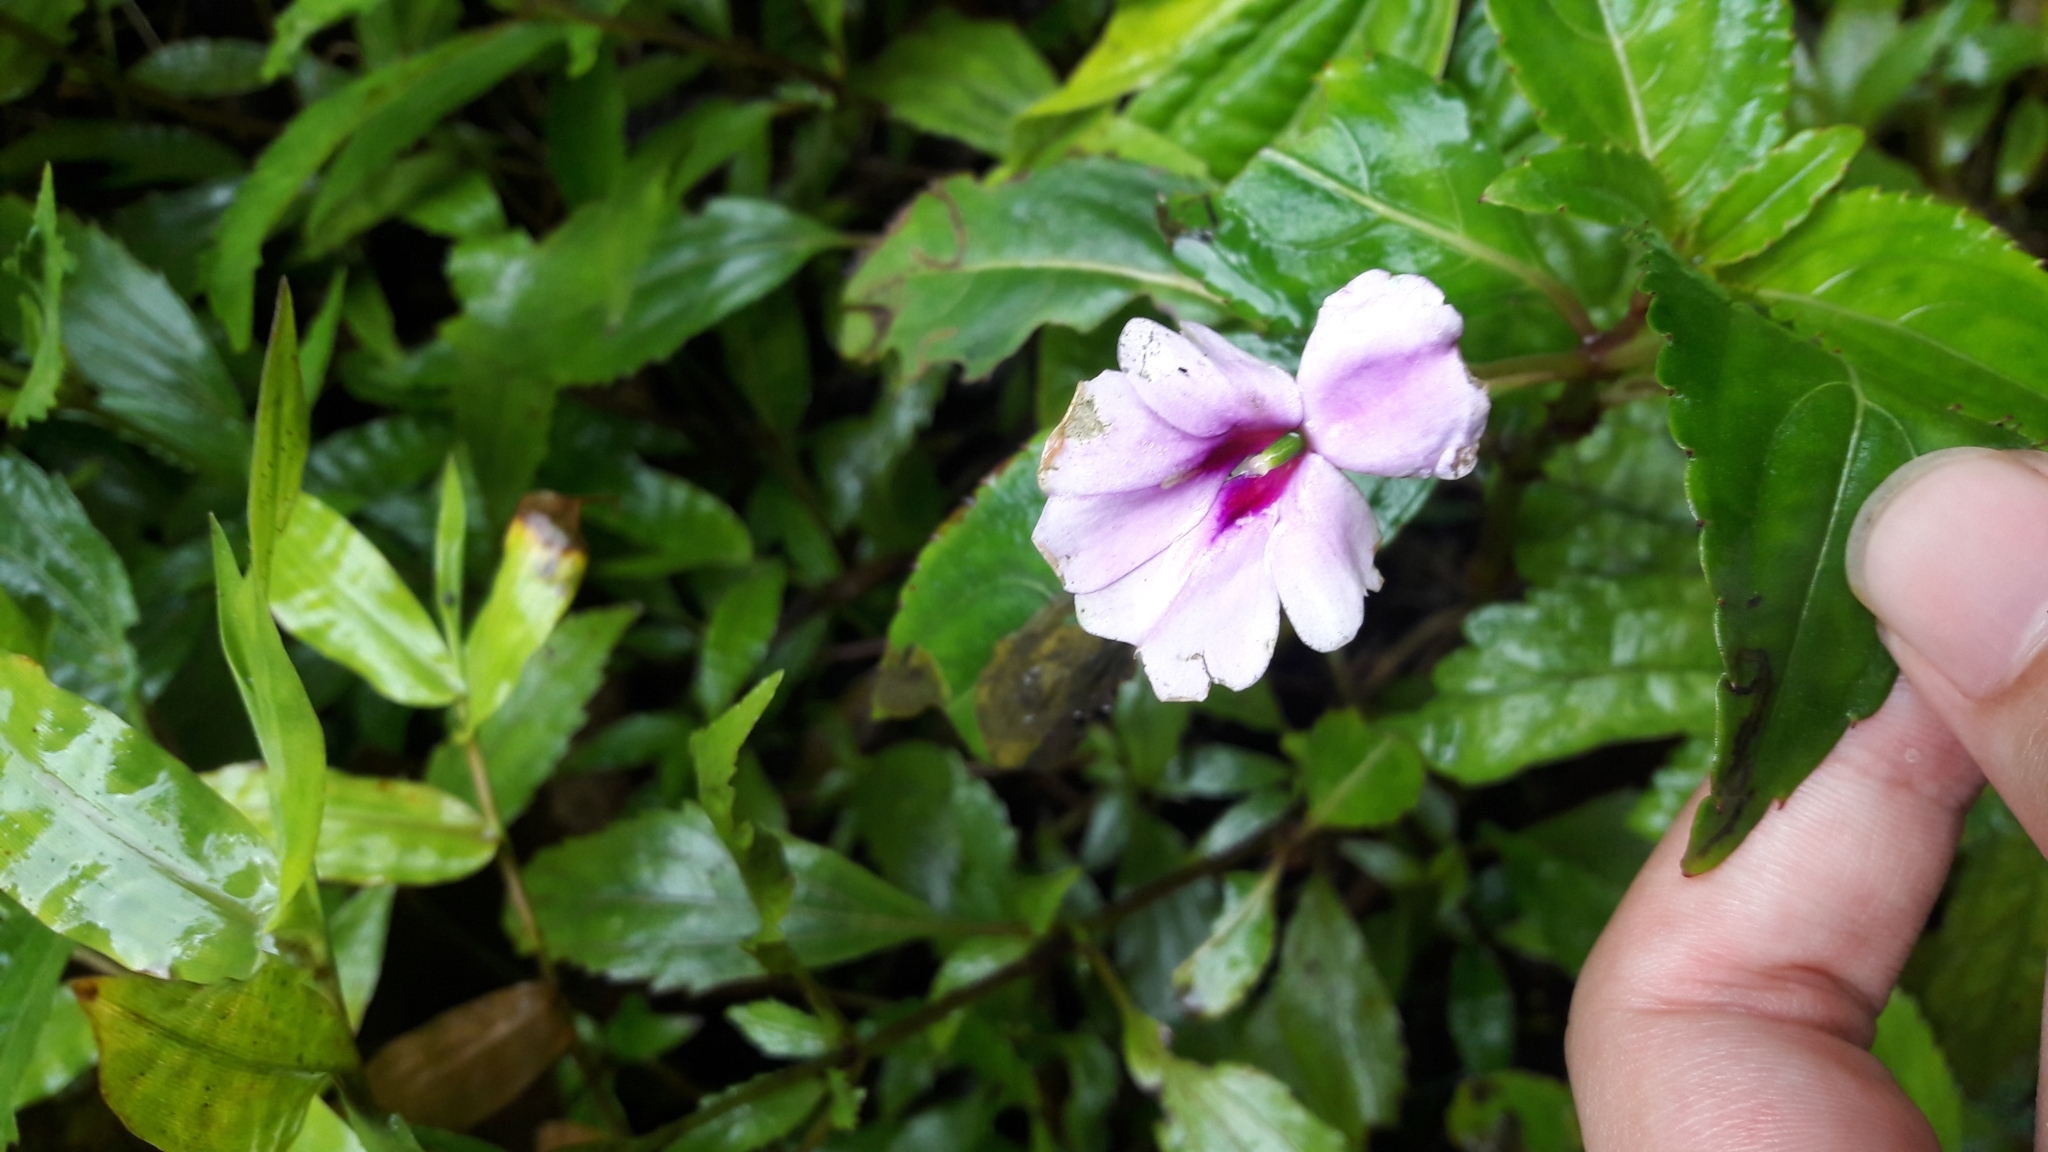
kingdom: Plantae
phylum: Tracheophyta
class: Magnoliopsida
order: Ericales
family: Balsaminaceae
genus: Impatiens
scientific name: Impatiens platypetala
